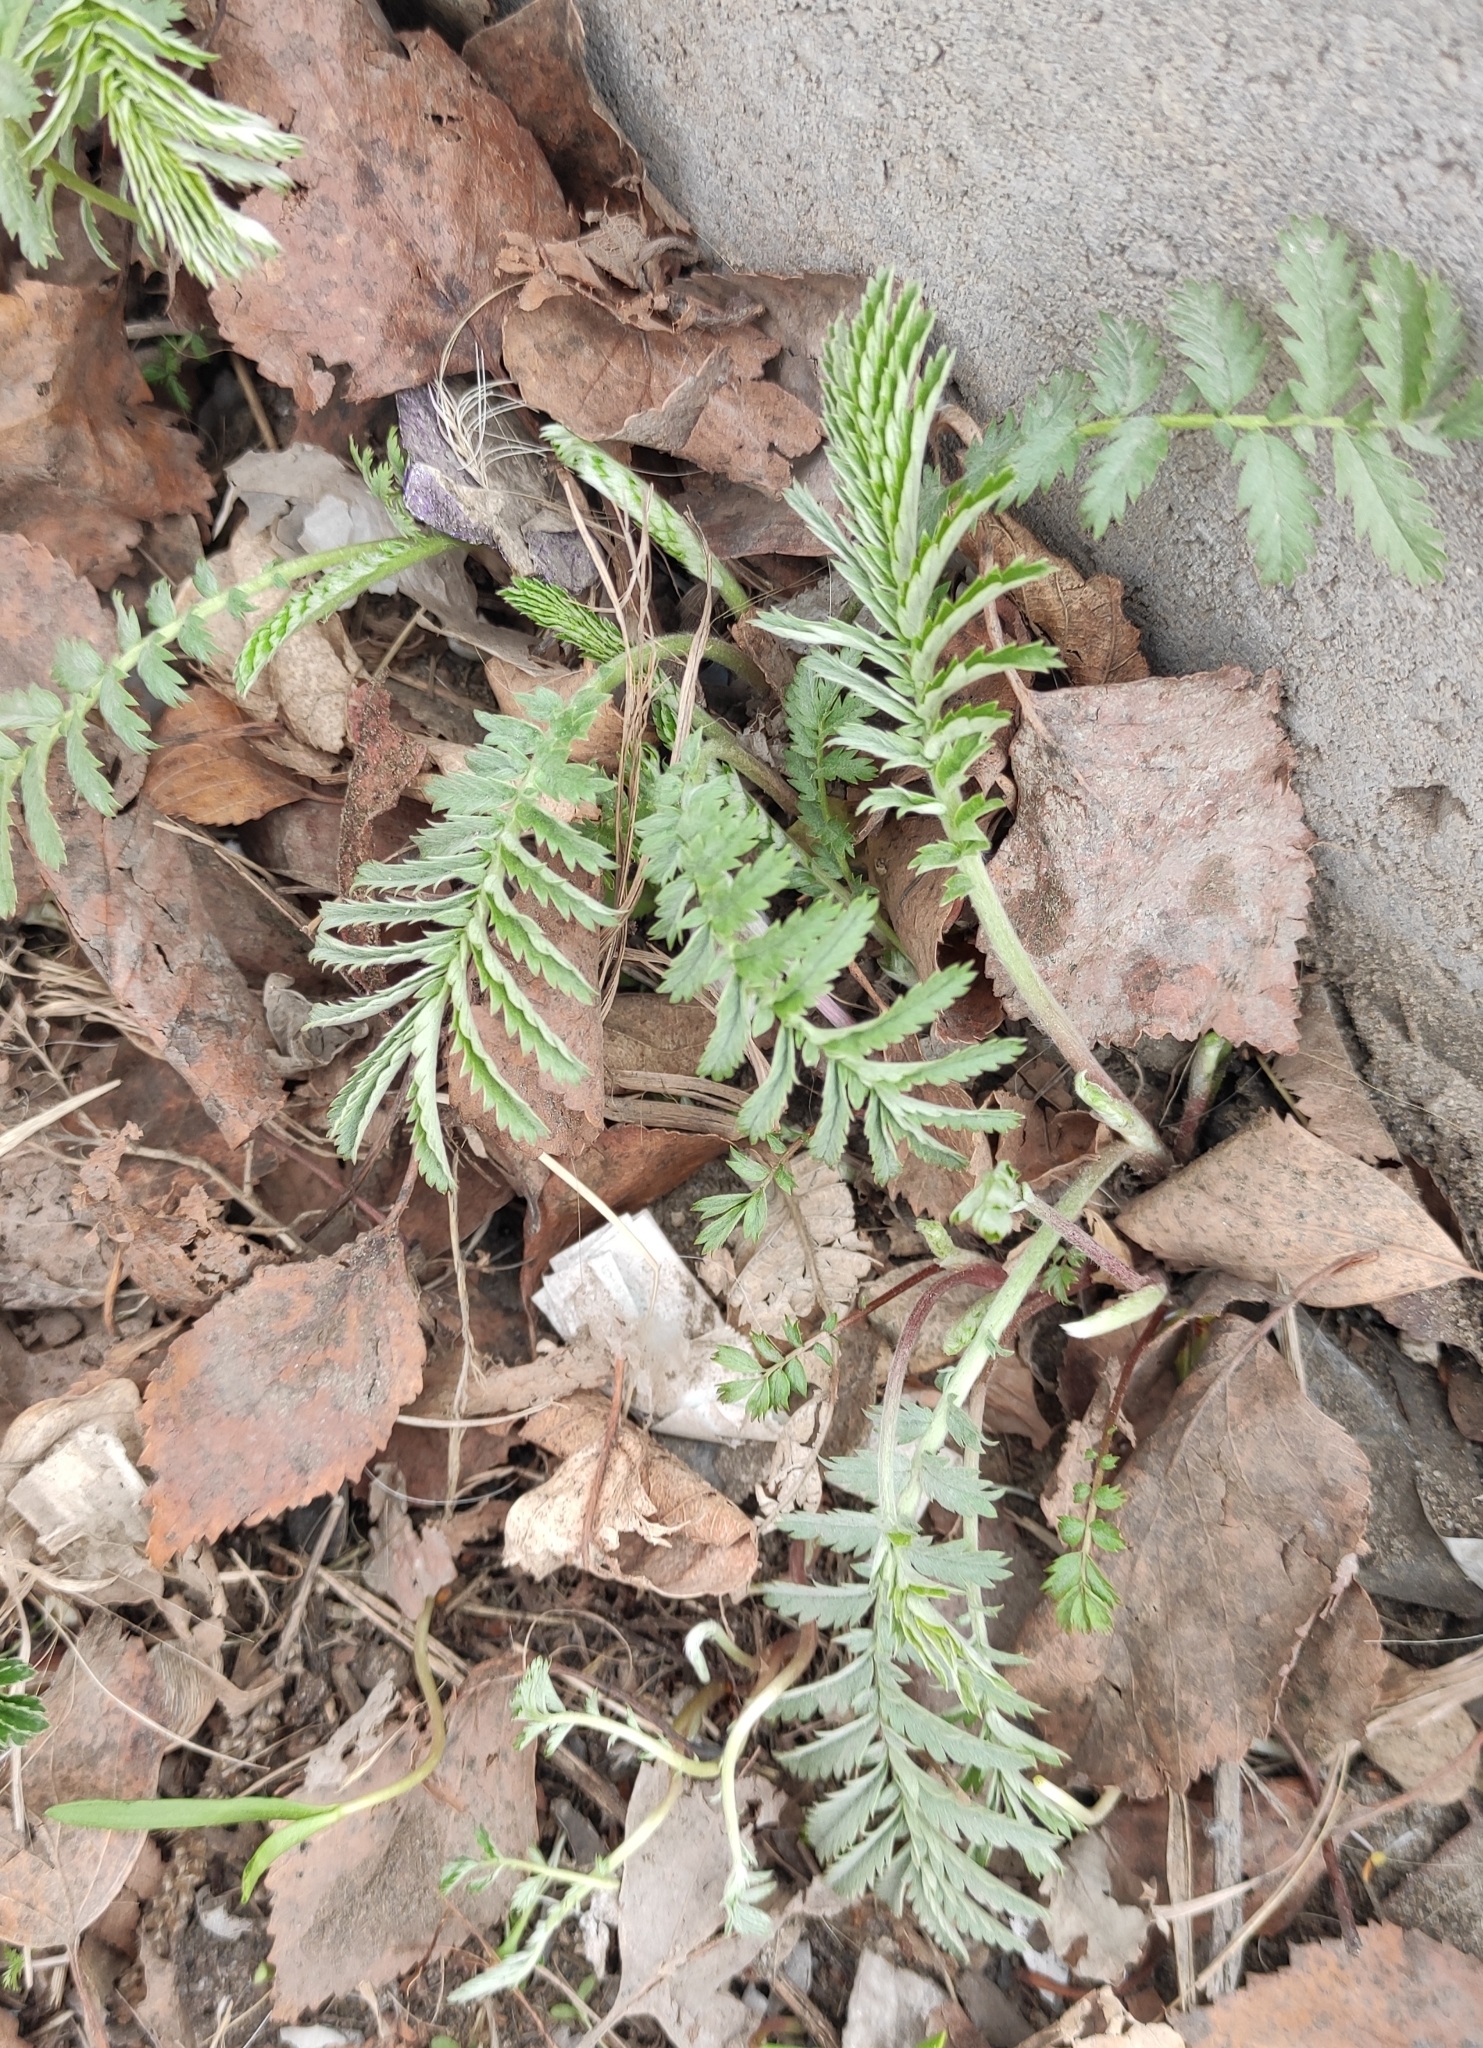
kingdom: Plantae
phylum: Tracheophyta
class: Magnoliopsida
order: Rosales
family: Rosaceae
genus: Argentina
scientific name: Argentina anserina
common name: Common silverweed
